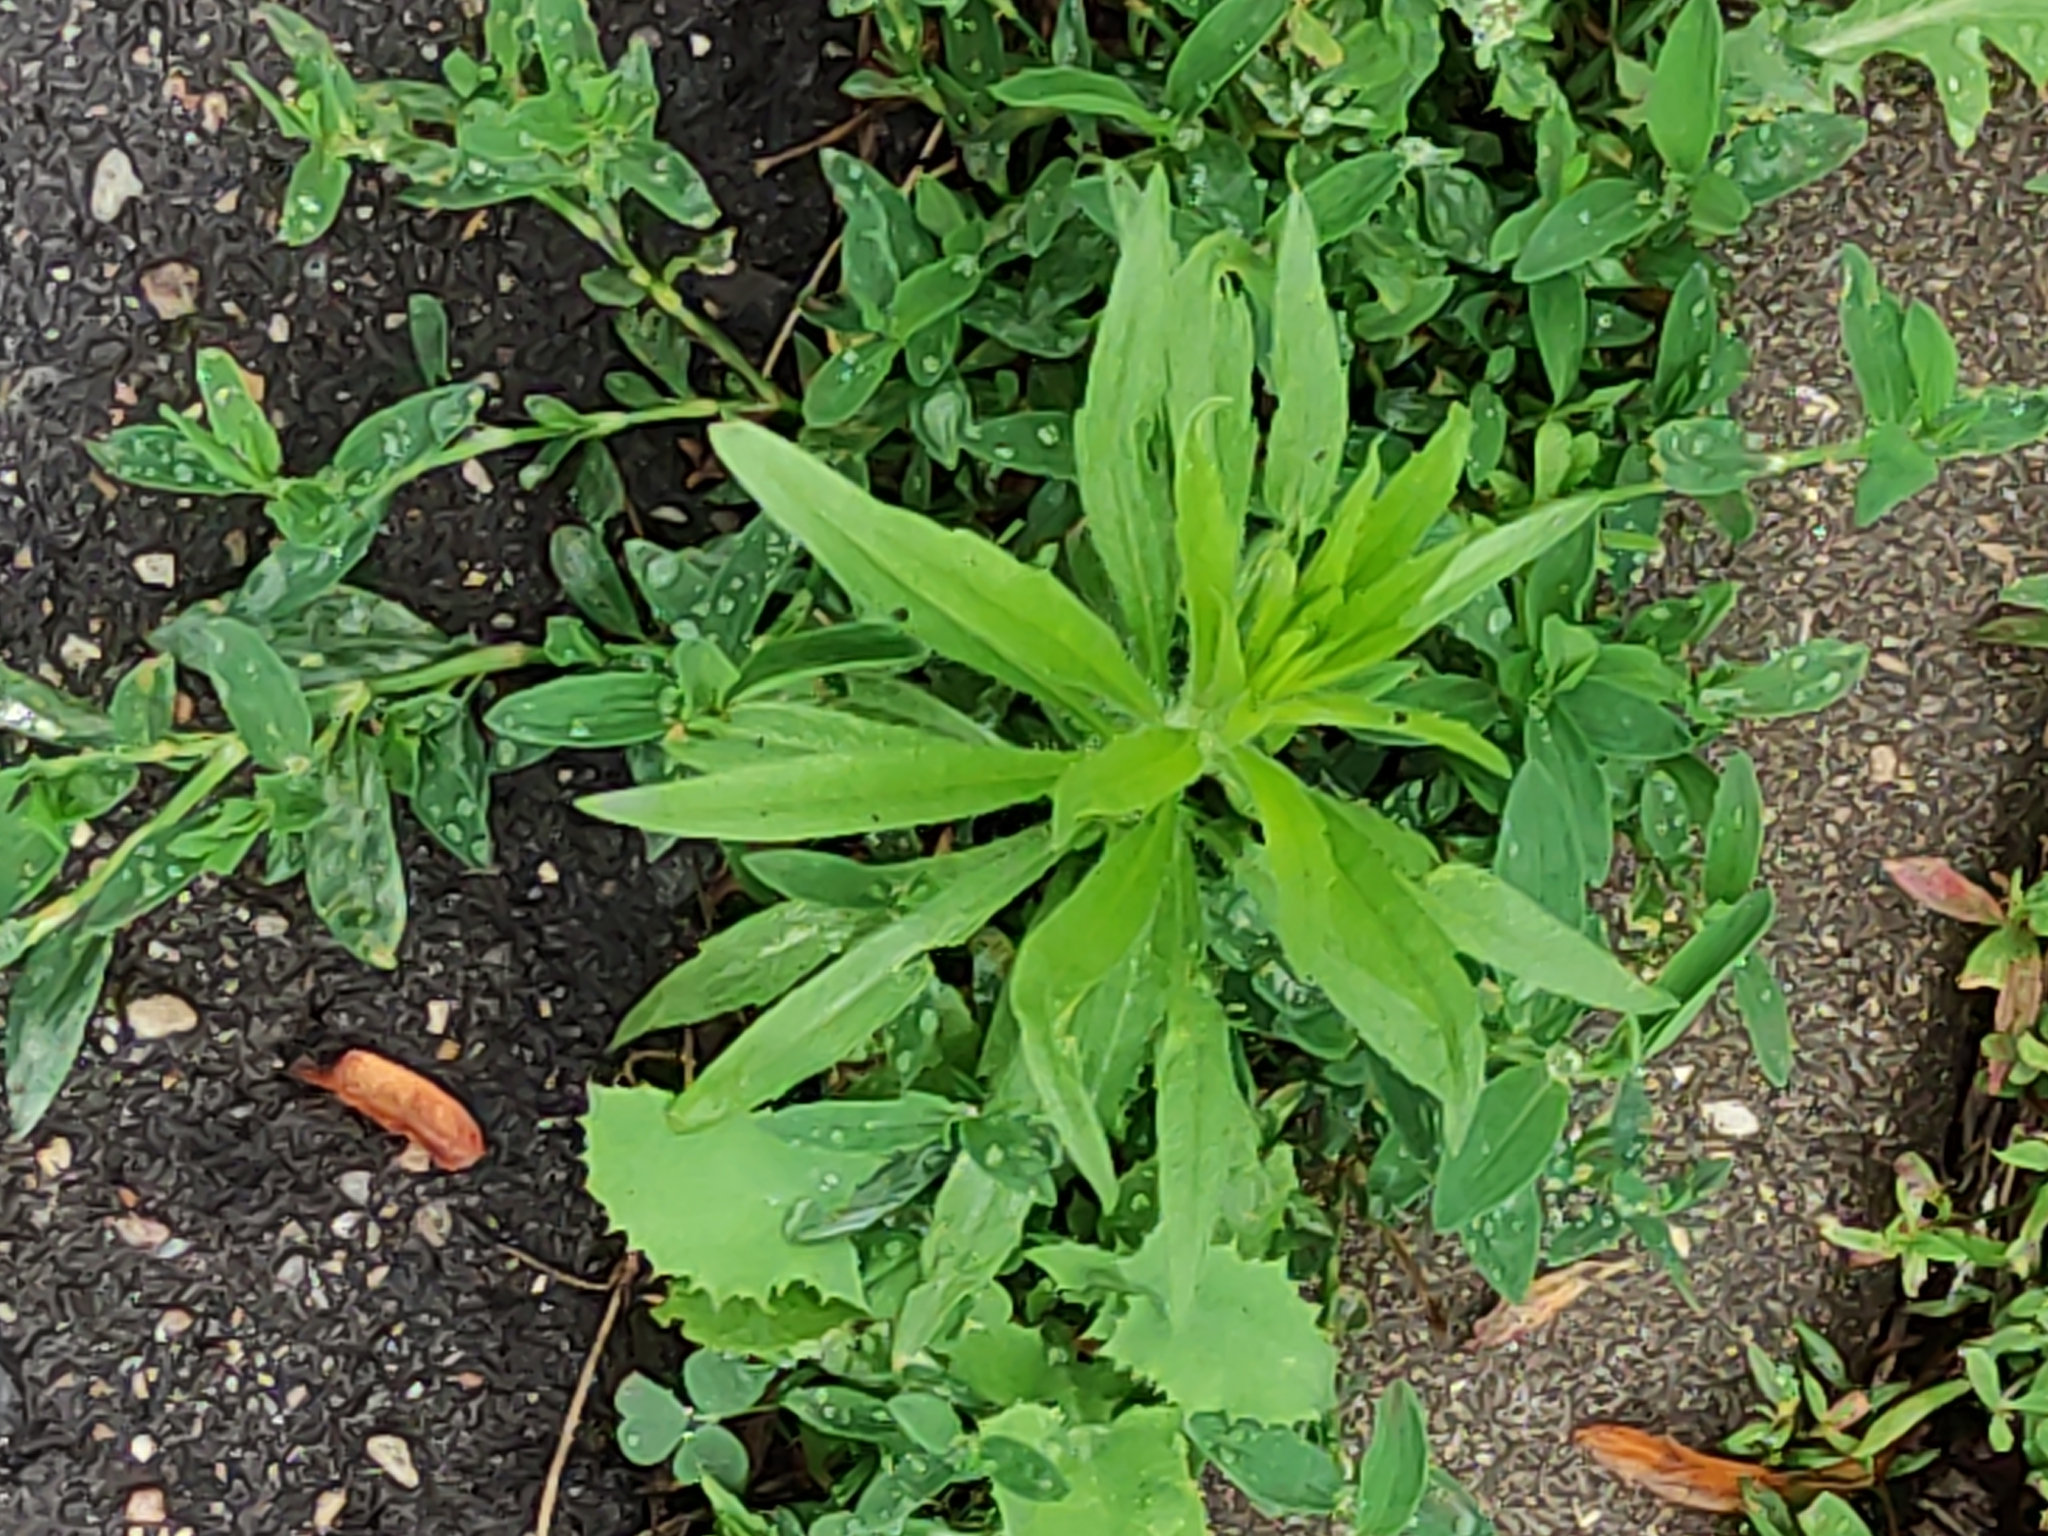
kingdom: Plantae
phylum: Tracheophyta
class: Magnoliopsida
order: Asterales
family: Asteraceae
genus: Erigeron
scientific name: Erigeron canadensis
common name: Canadian fleabane
